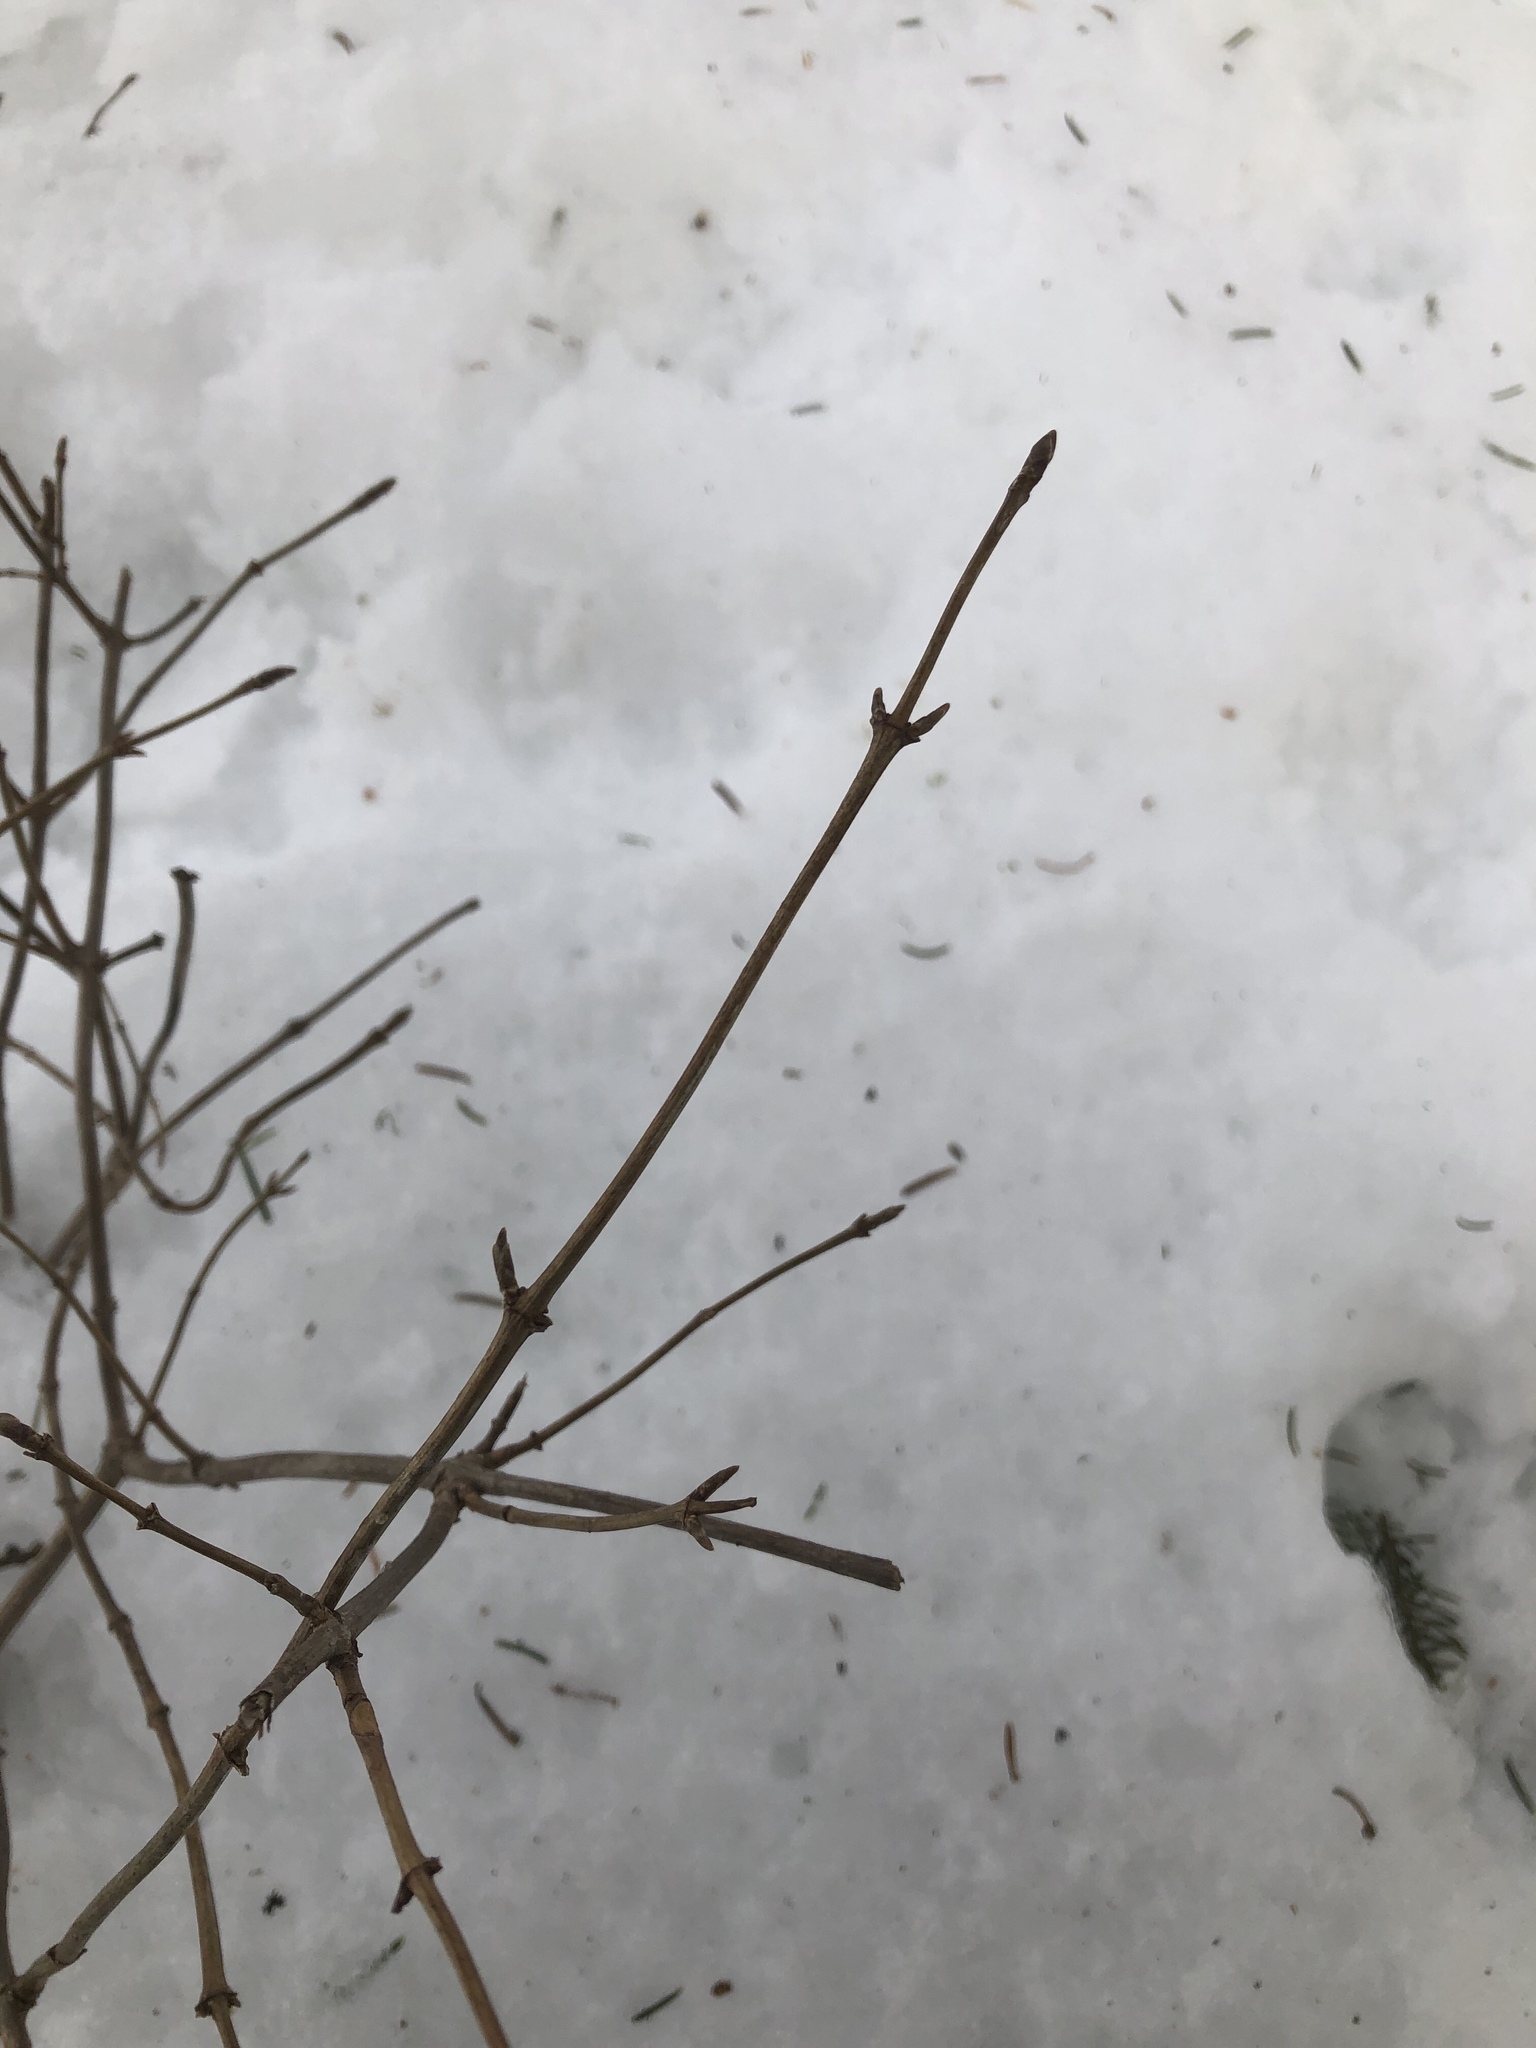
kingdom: Plantae
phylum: Tracheophyta
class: Magnoliopsida
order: Dipsacales
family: Caprifoliaceae
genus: Lonicera
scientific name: Lonicera canadensis
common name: American fly-honeysuckle
